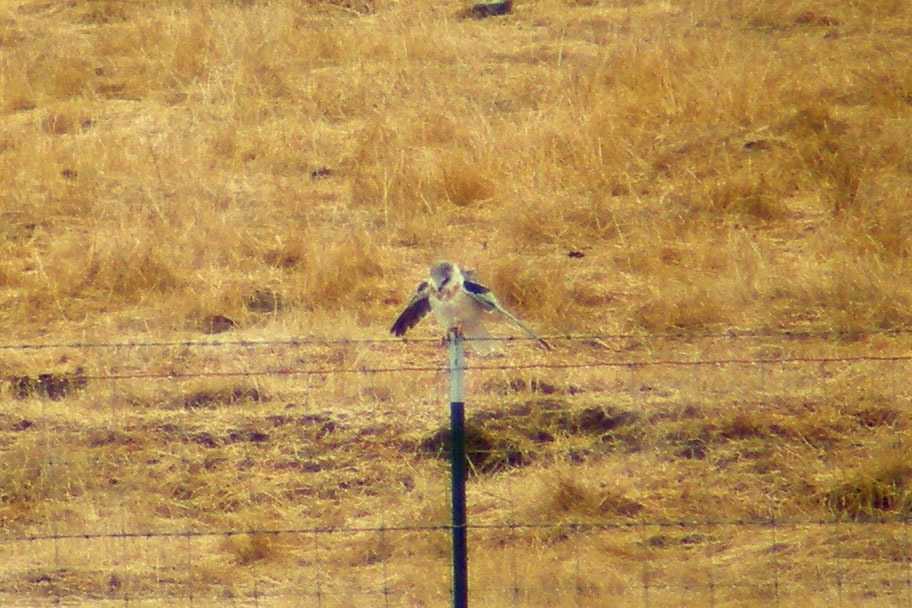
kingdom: Animalia
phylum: Chordata
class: Aves
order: Accipitriformes
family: Accipitridae
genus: Elanus
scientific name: Elanus leucurus
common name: White-tailed kite
